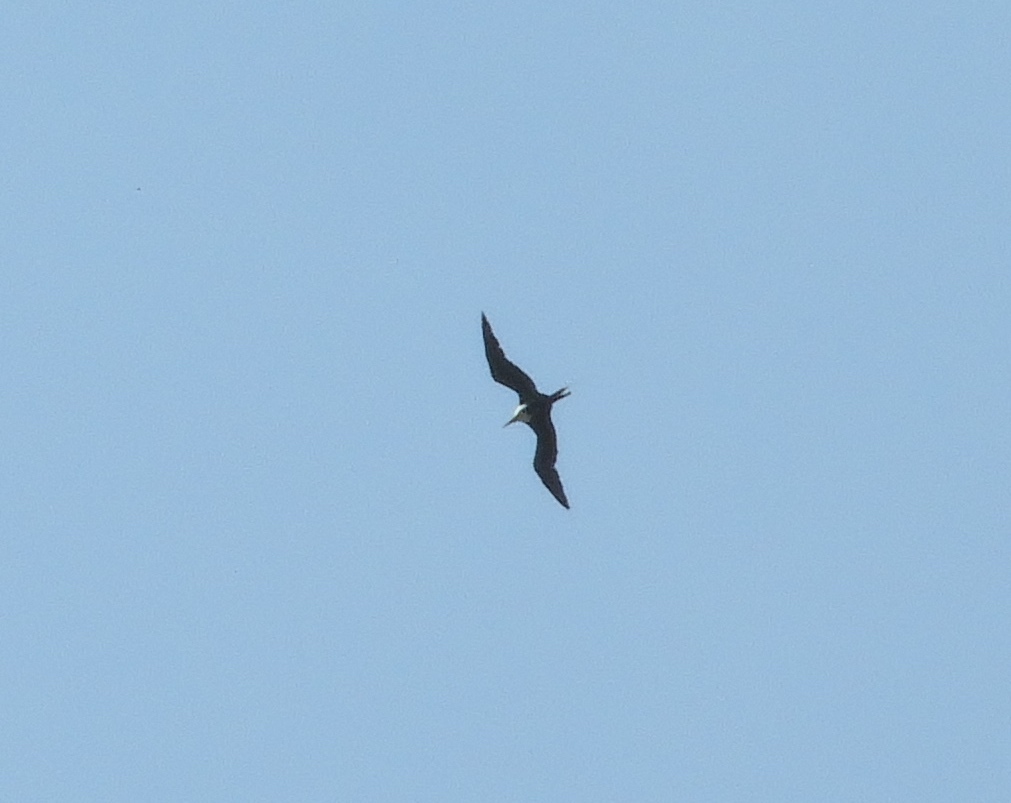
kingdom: Animalia
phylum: Chordata
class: Aves
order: Suliformes
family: Fregatidae
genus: Fregata
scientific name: Fregata magnificens
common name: Magnificent frigatebird
